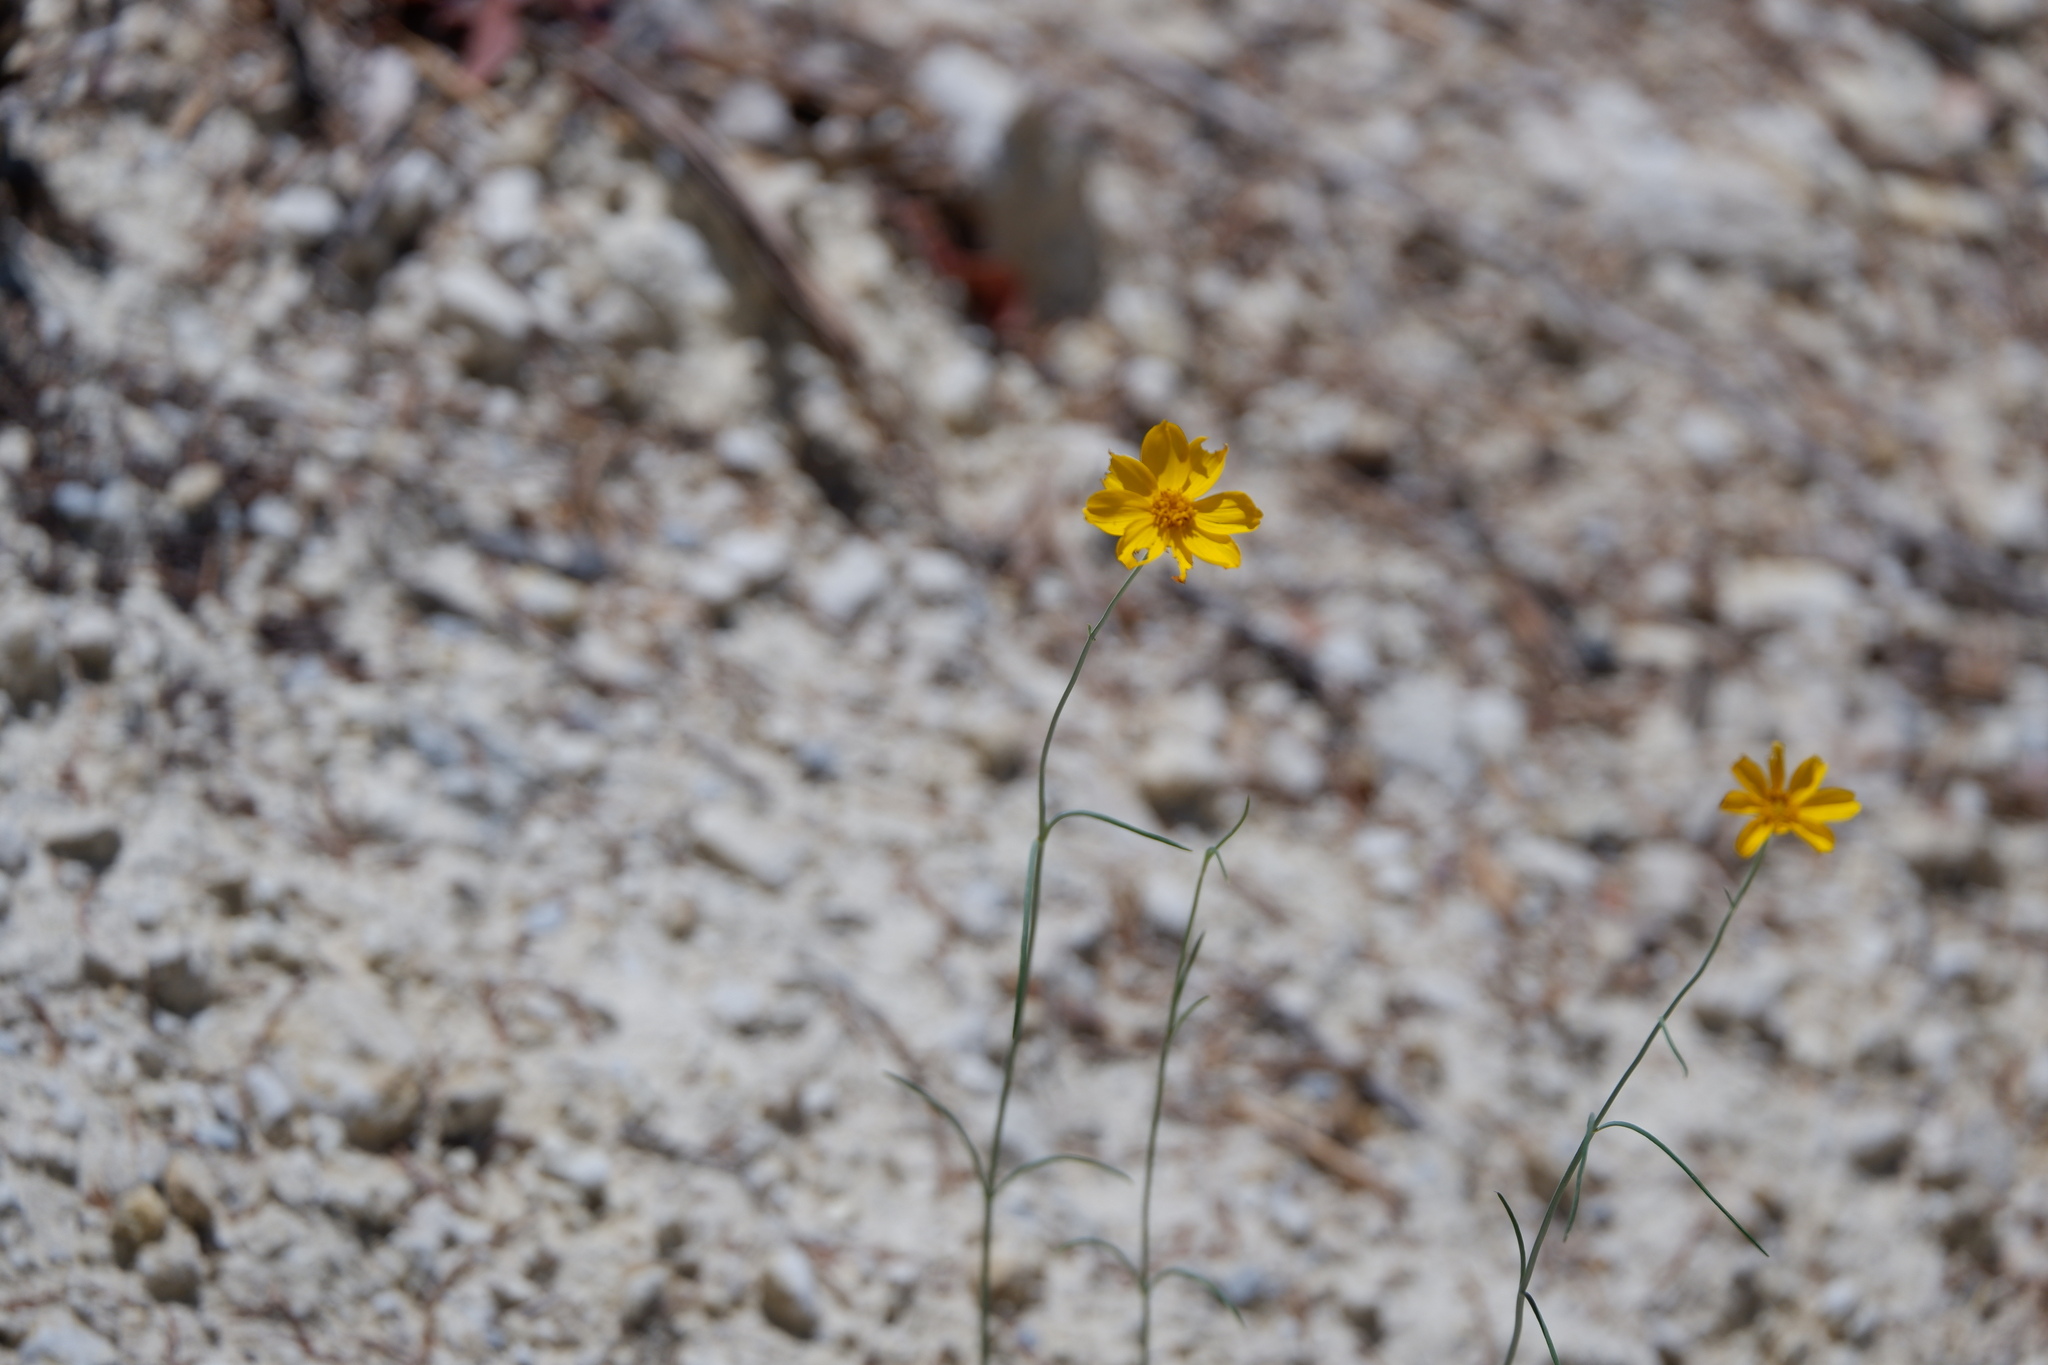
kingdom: Plantae
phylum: Tracheophyta
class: Magnoliopsida
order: Asterales
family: Asteraceae
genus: Thelesperma
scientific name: Thelesperma simplicifolium
